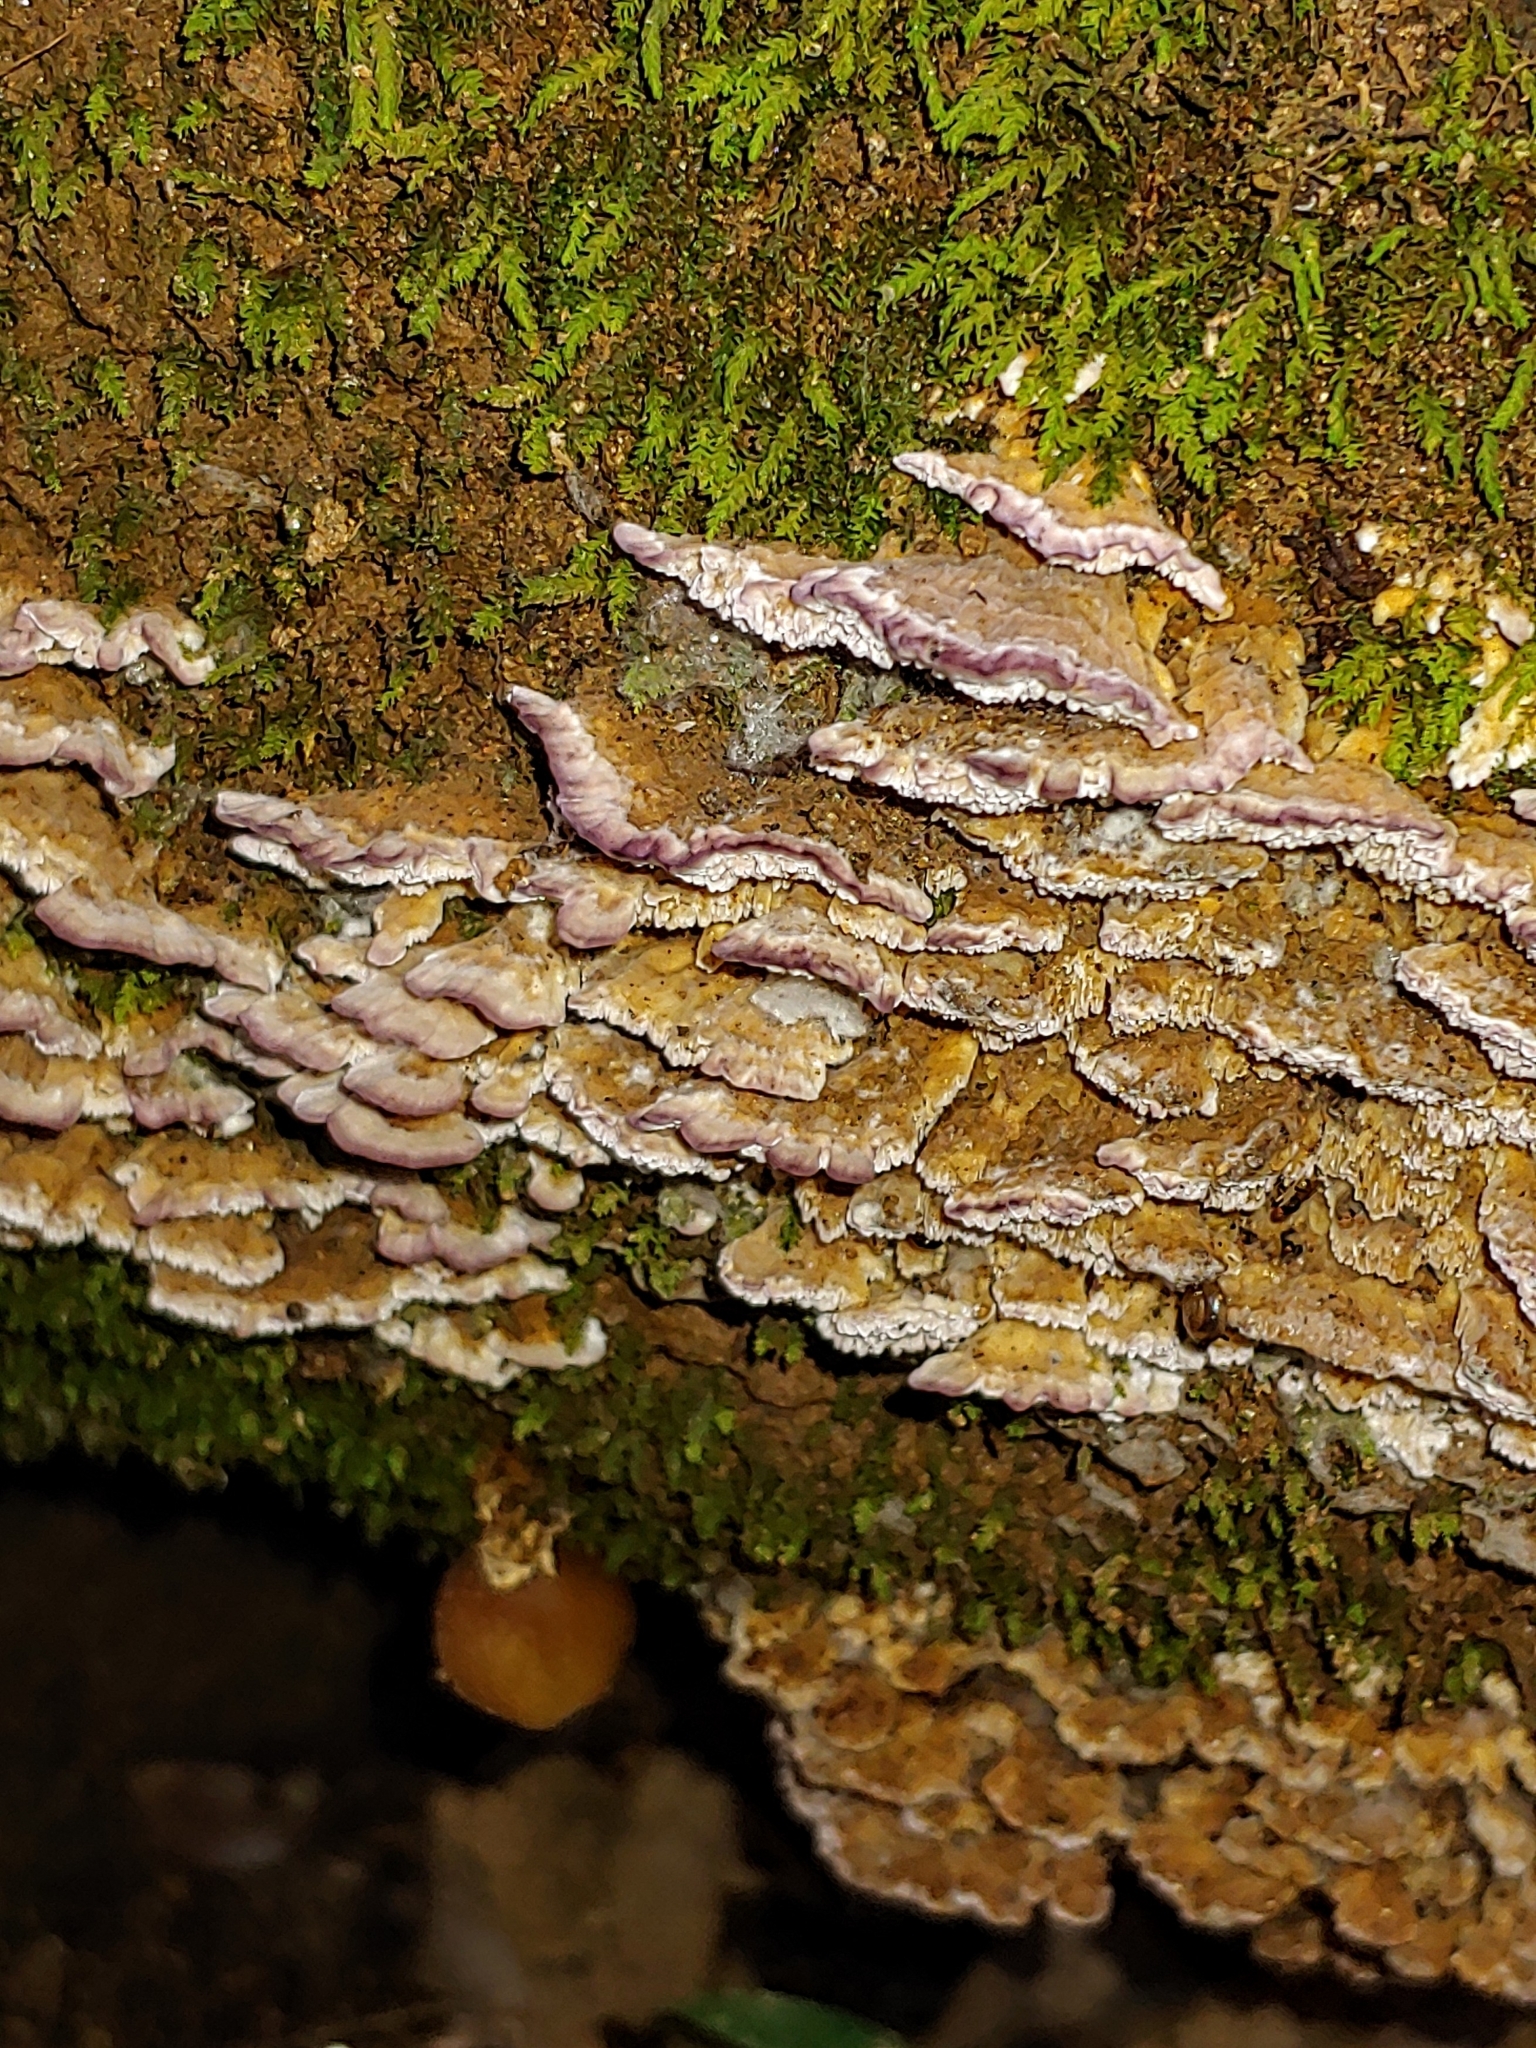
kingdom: Fungi
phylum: Basidiomycota
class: Agaricomycetes
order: Hymenochaetales
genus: Trichaptum
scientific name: Trichaptum biforme
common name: Violet-toothed polypore
